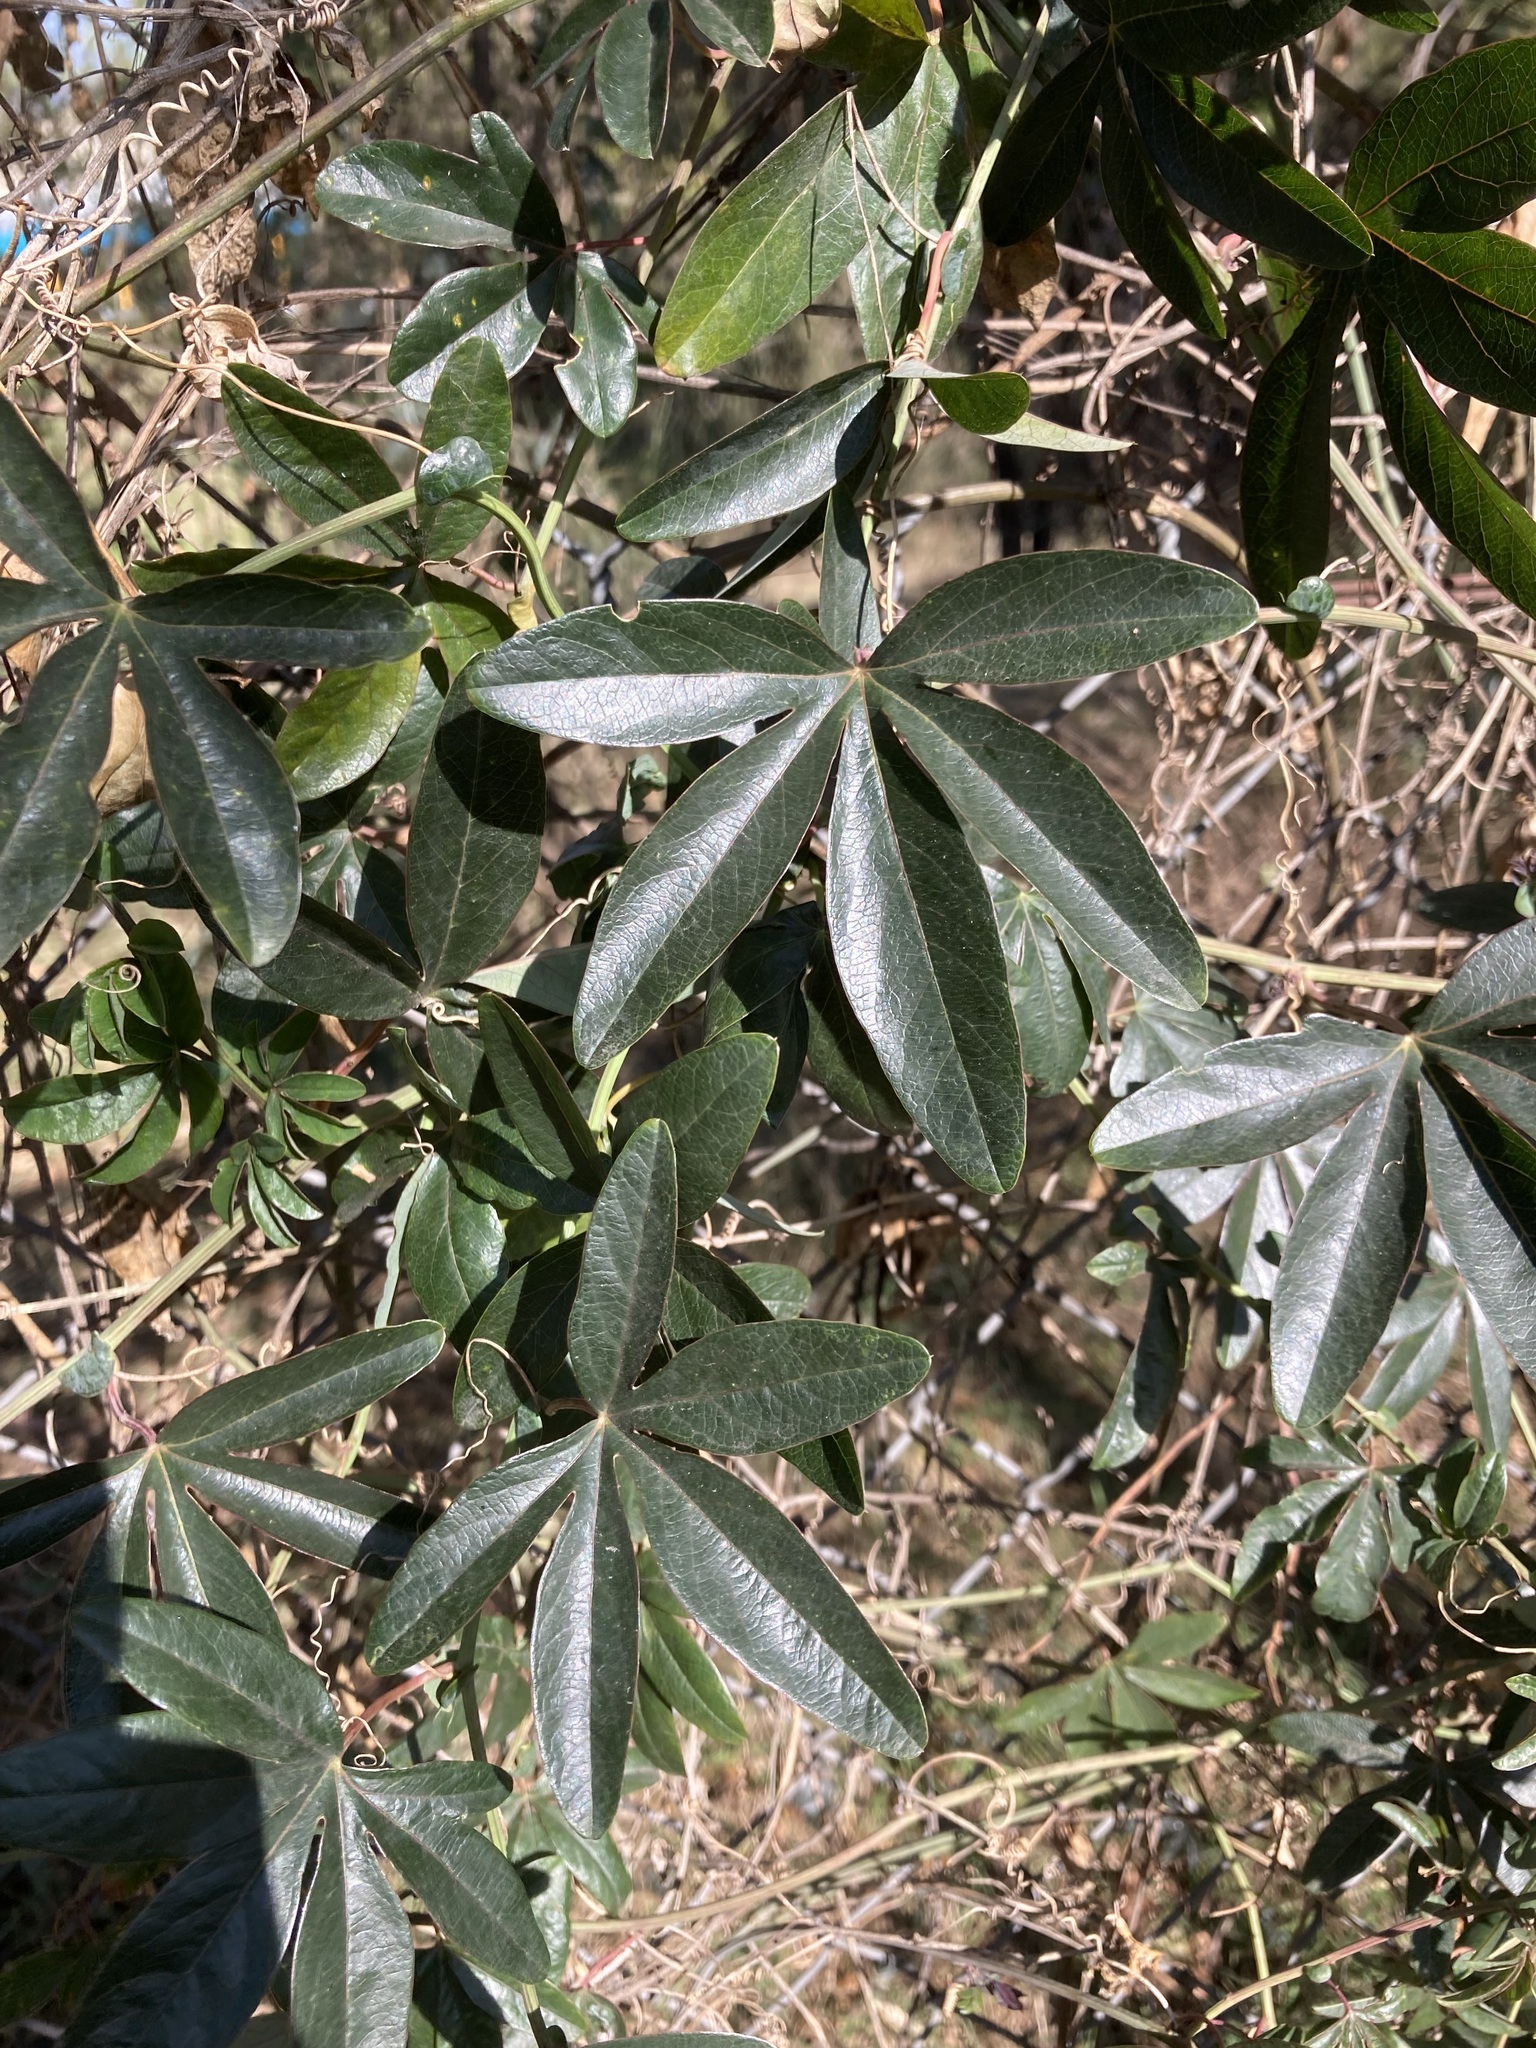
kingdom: Plantae
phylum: Tracheophyta
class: Magnoliopsida
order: Malpighiales
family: Passifloraceae
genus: Passiflora
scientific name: Passiflora caerulea
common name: Blue passionflower
